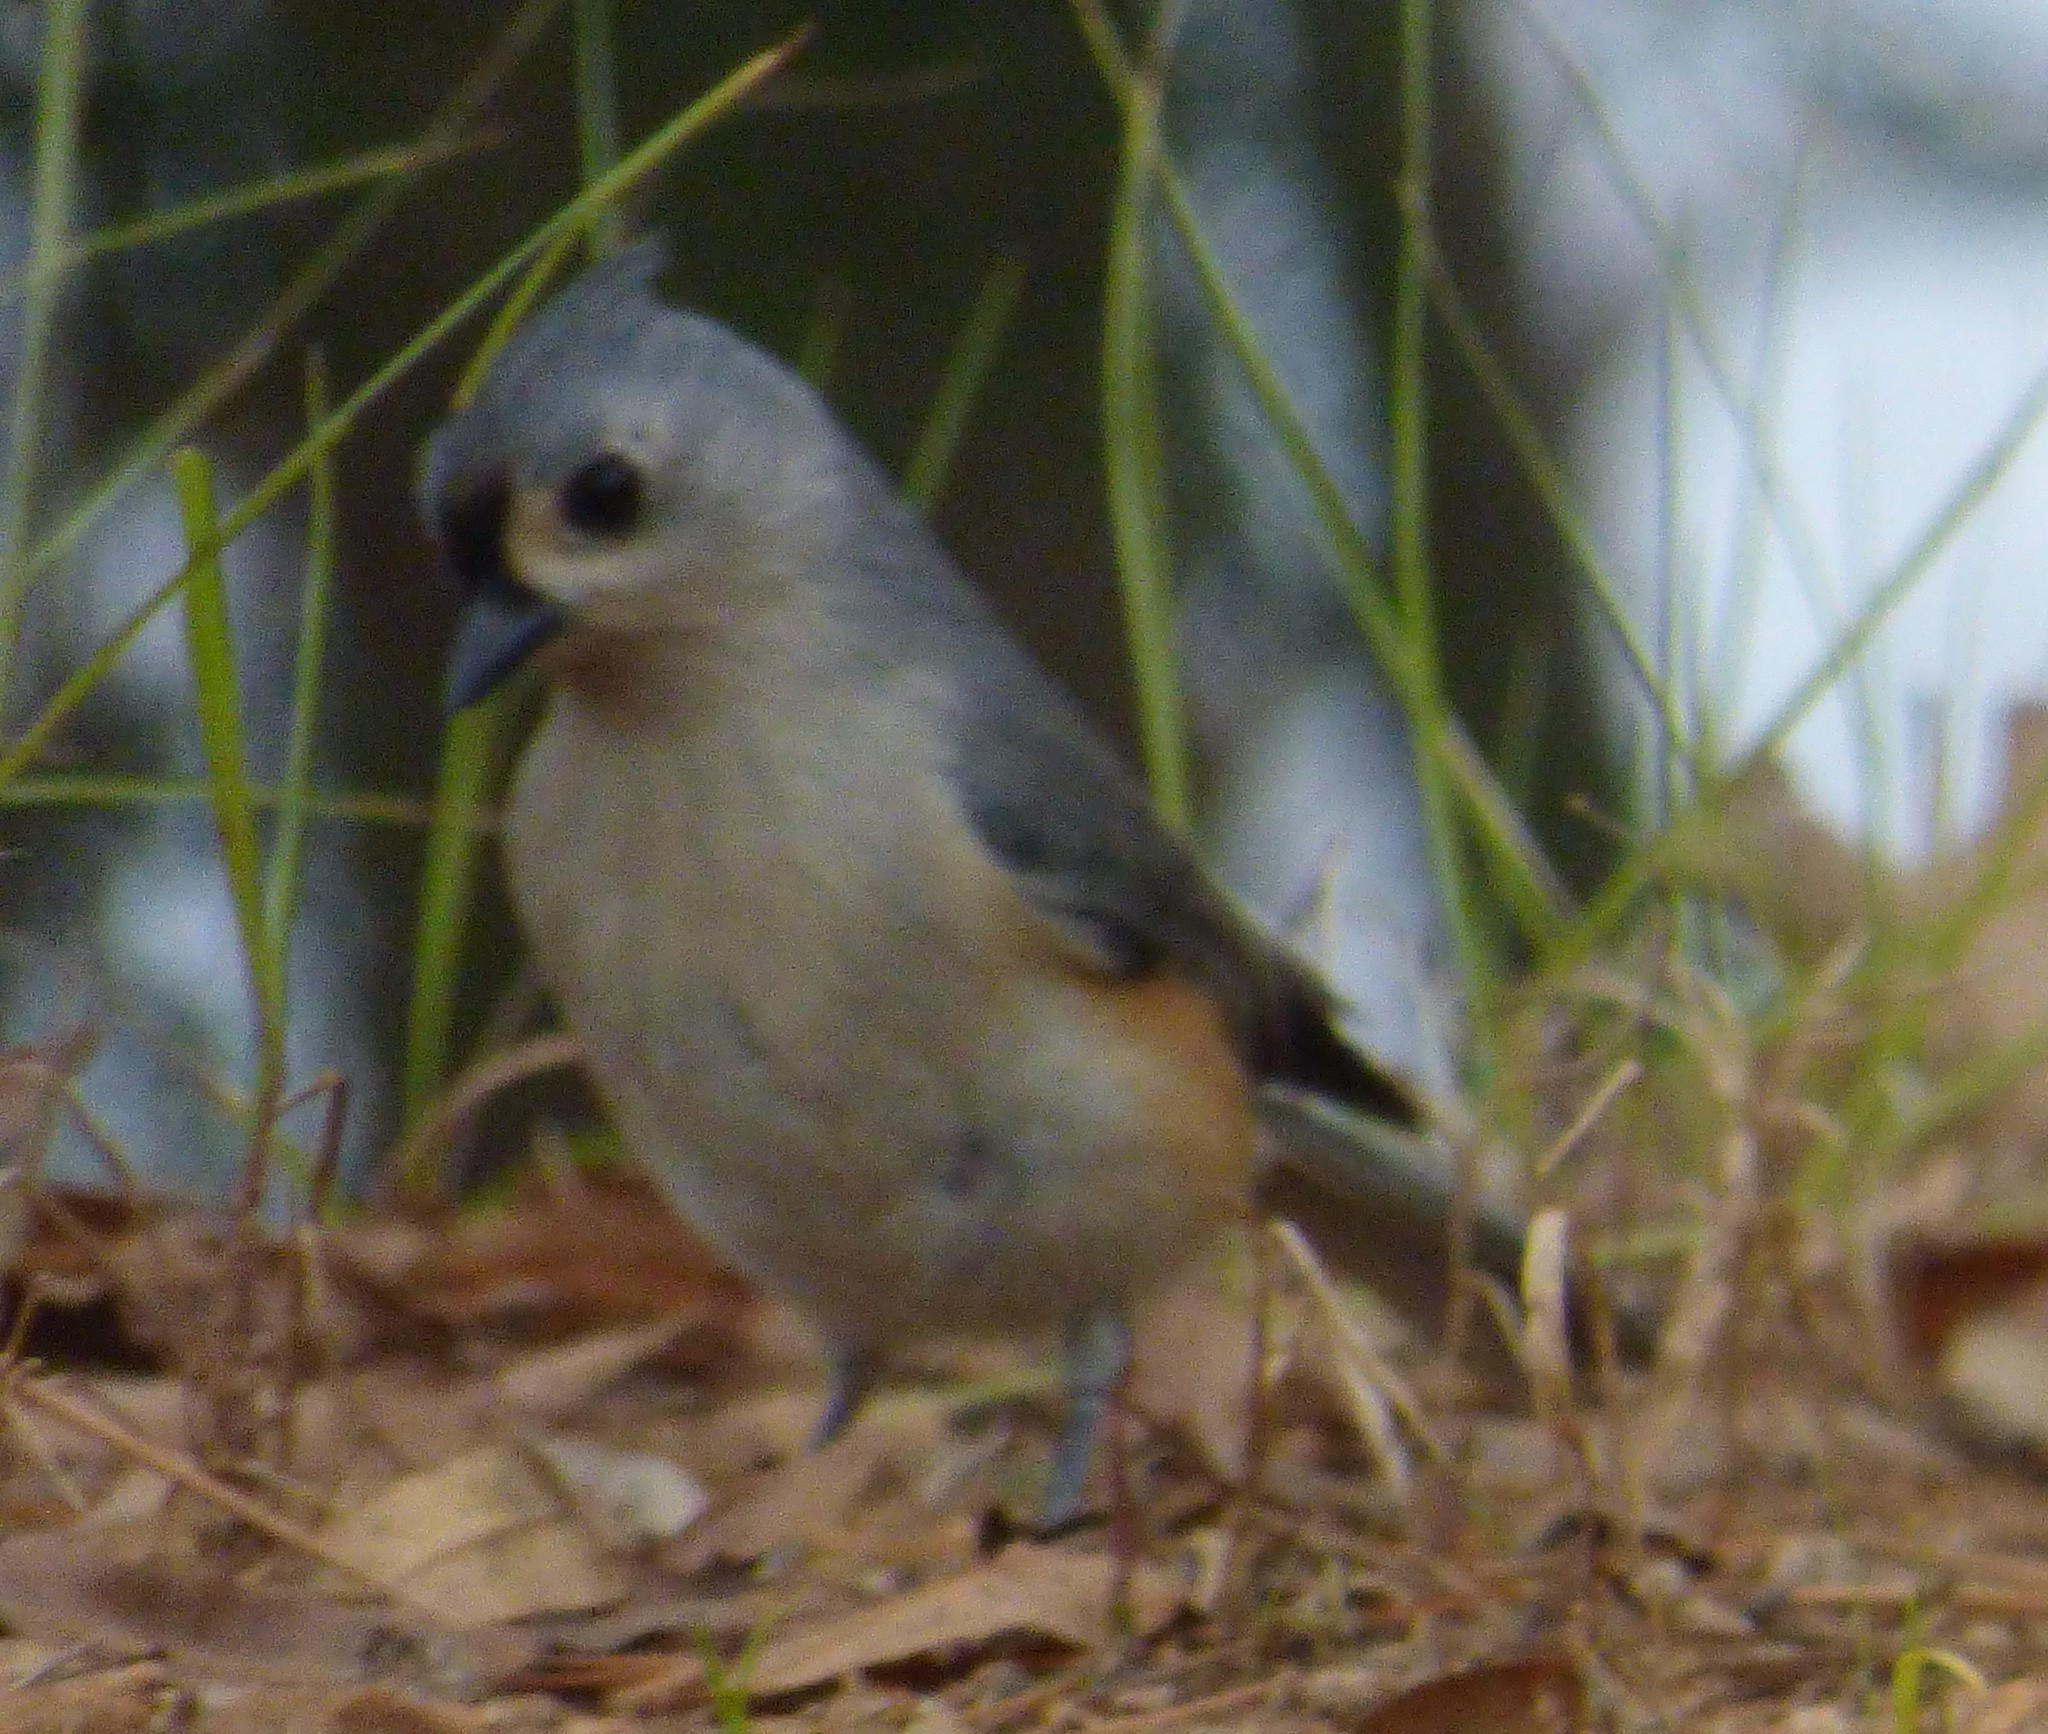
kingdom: Animalia
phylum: Chordata
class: Aves
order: Passeriformes
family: Paridae
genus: Baeolophus
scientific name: Baeolophus bicolor
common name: Tufted titmouse
